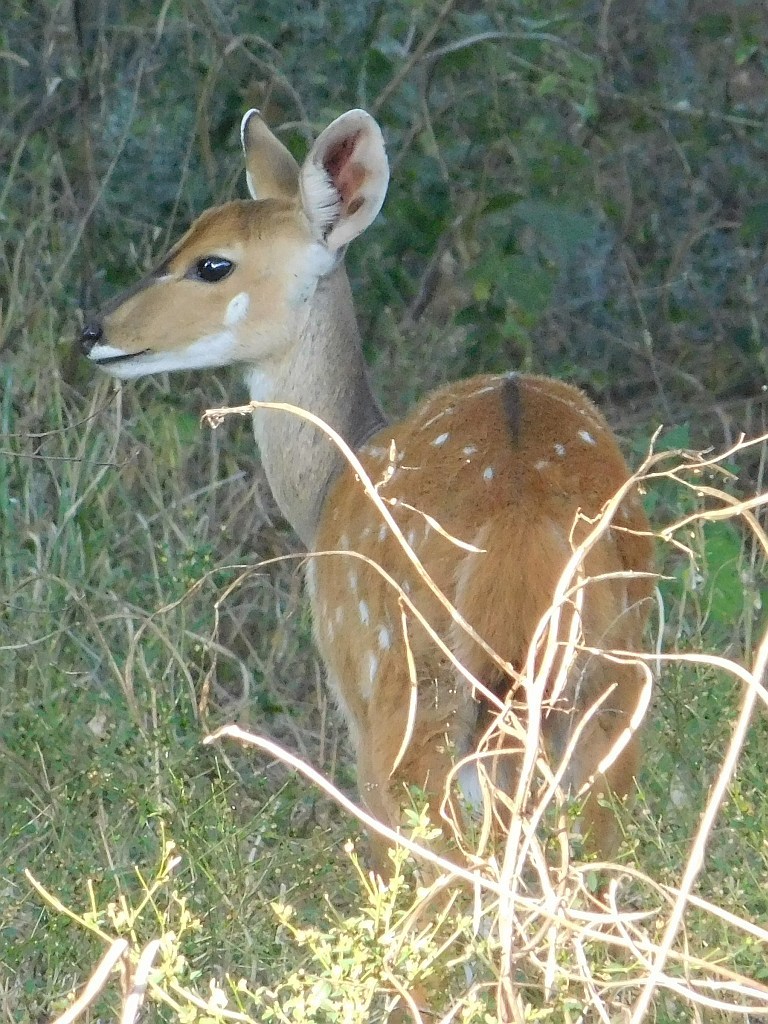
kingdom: Animalia
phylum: Chordata
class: Mammalia
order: Artiodactyla
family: Bovidae
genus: Tragelaphus
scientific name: Tragelaphus scriptus
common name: Bushbuck
